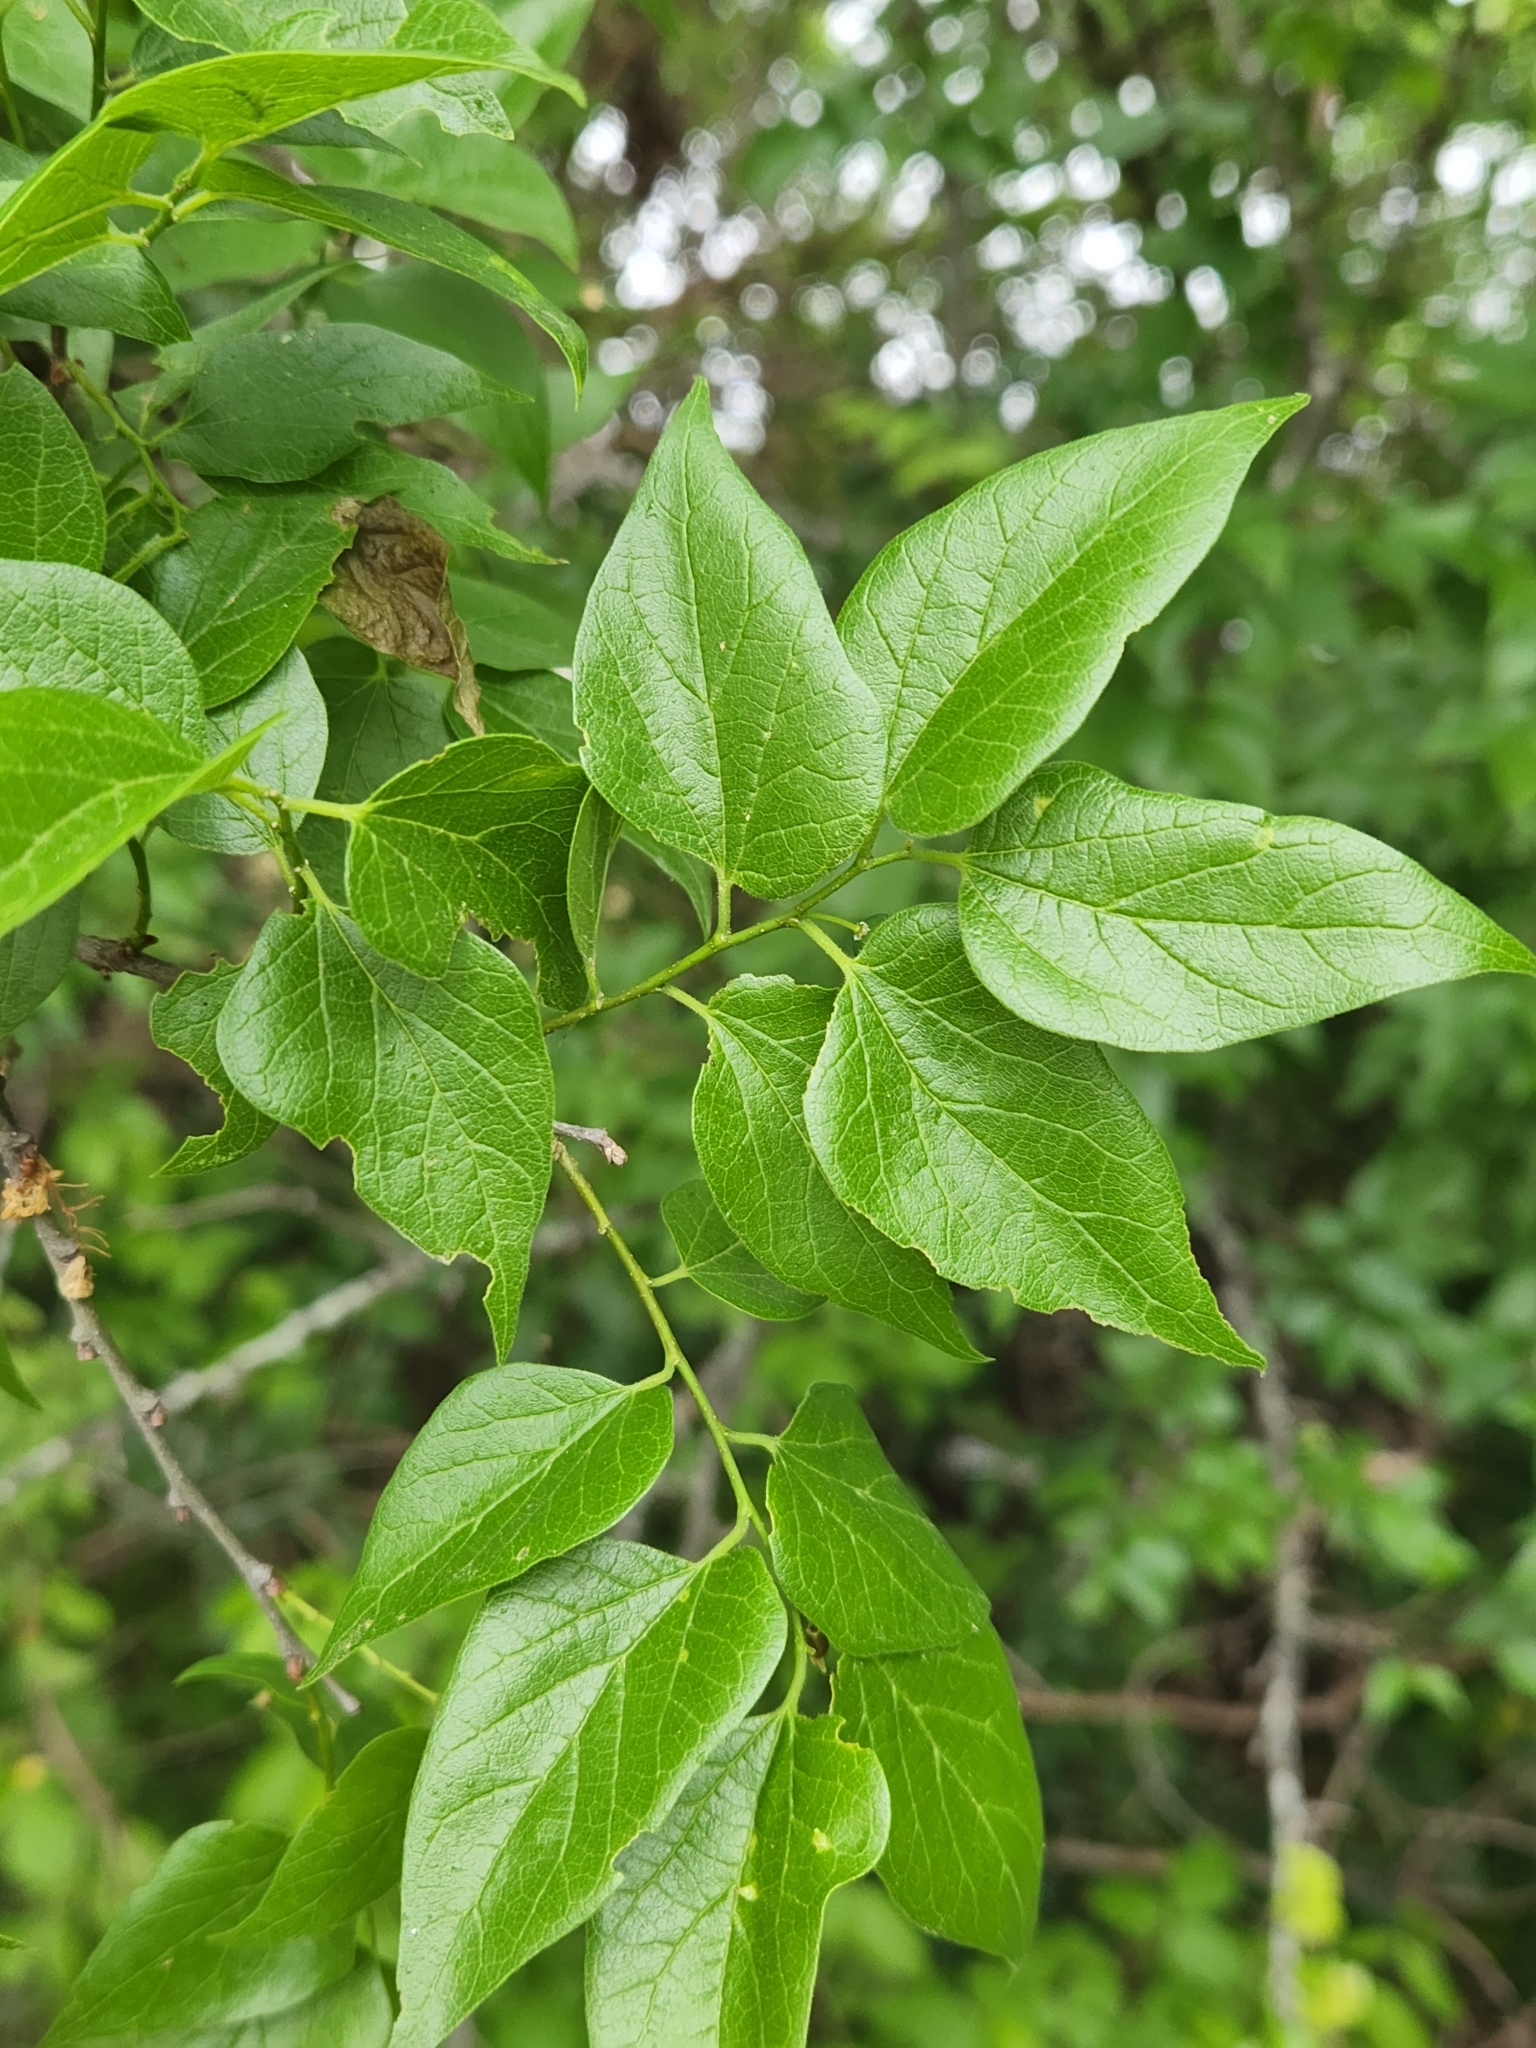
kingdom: Plantae
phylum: Tracheophyta
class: Magnoliopsida
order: Rosales
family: Cannabaceae
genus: Celtis
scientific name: Celtis laevigata
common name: Sugarberry
